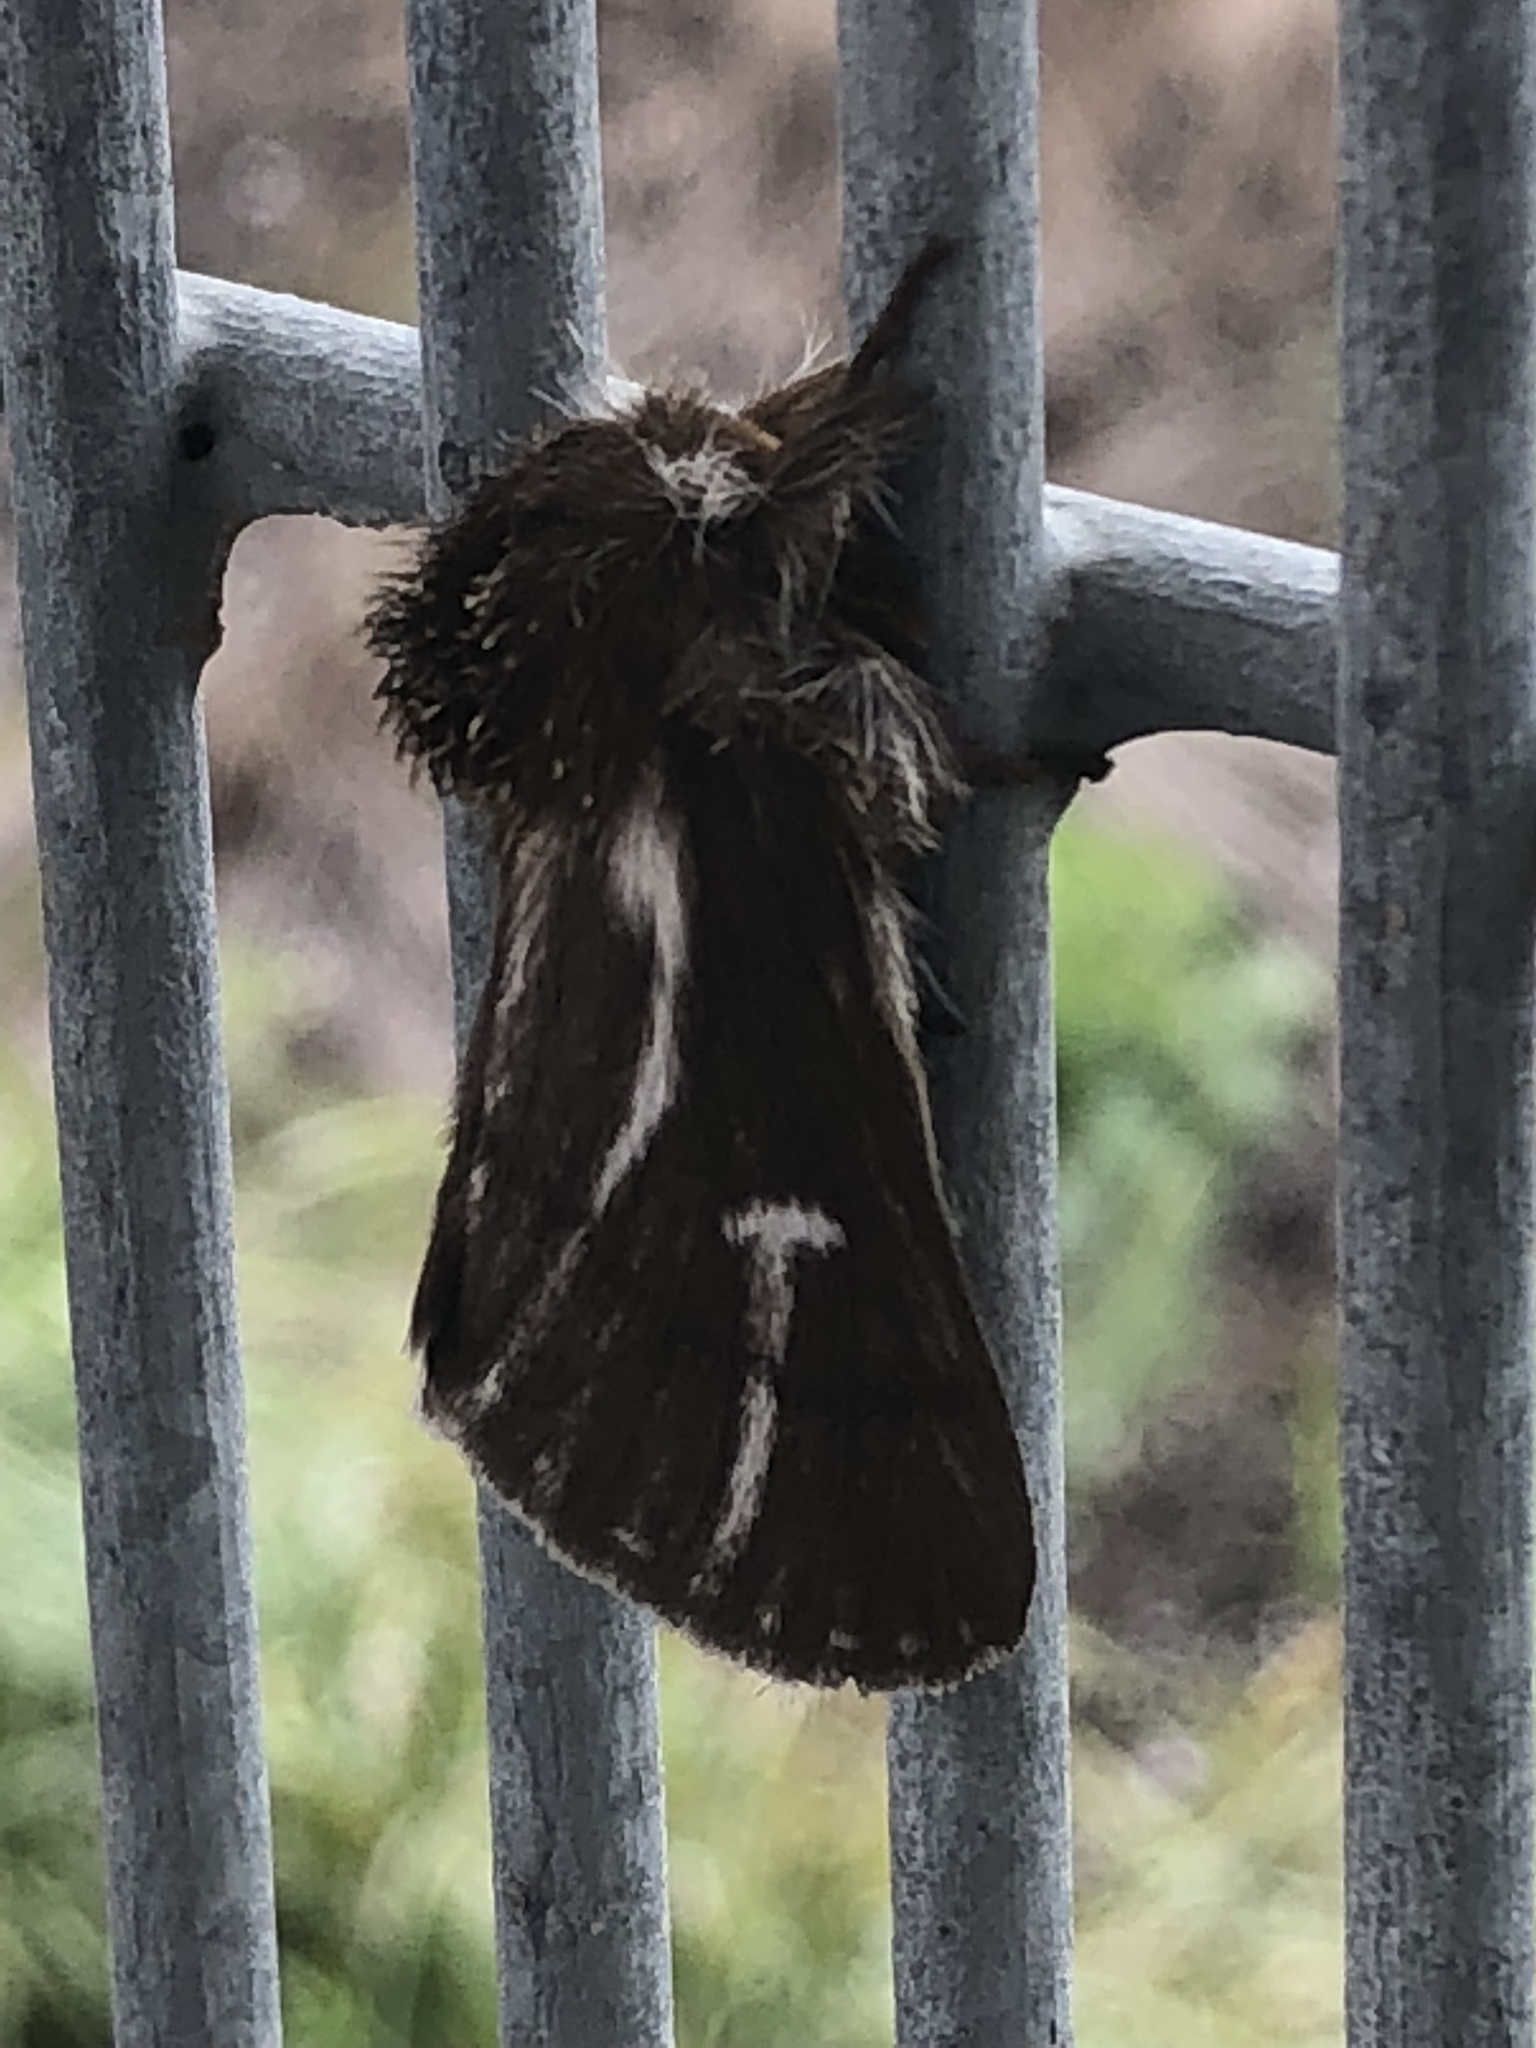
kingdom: Animalia
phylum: Arthropoda
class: Insecta
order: Lepidoptera
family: Notodontidae
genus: Ochrogaster
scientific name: Ochrogaster lunifer
